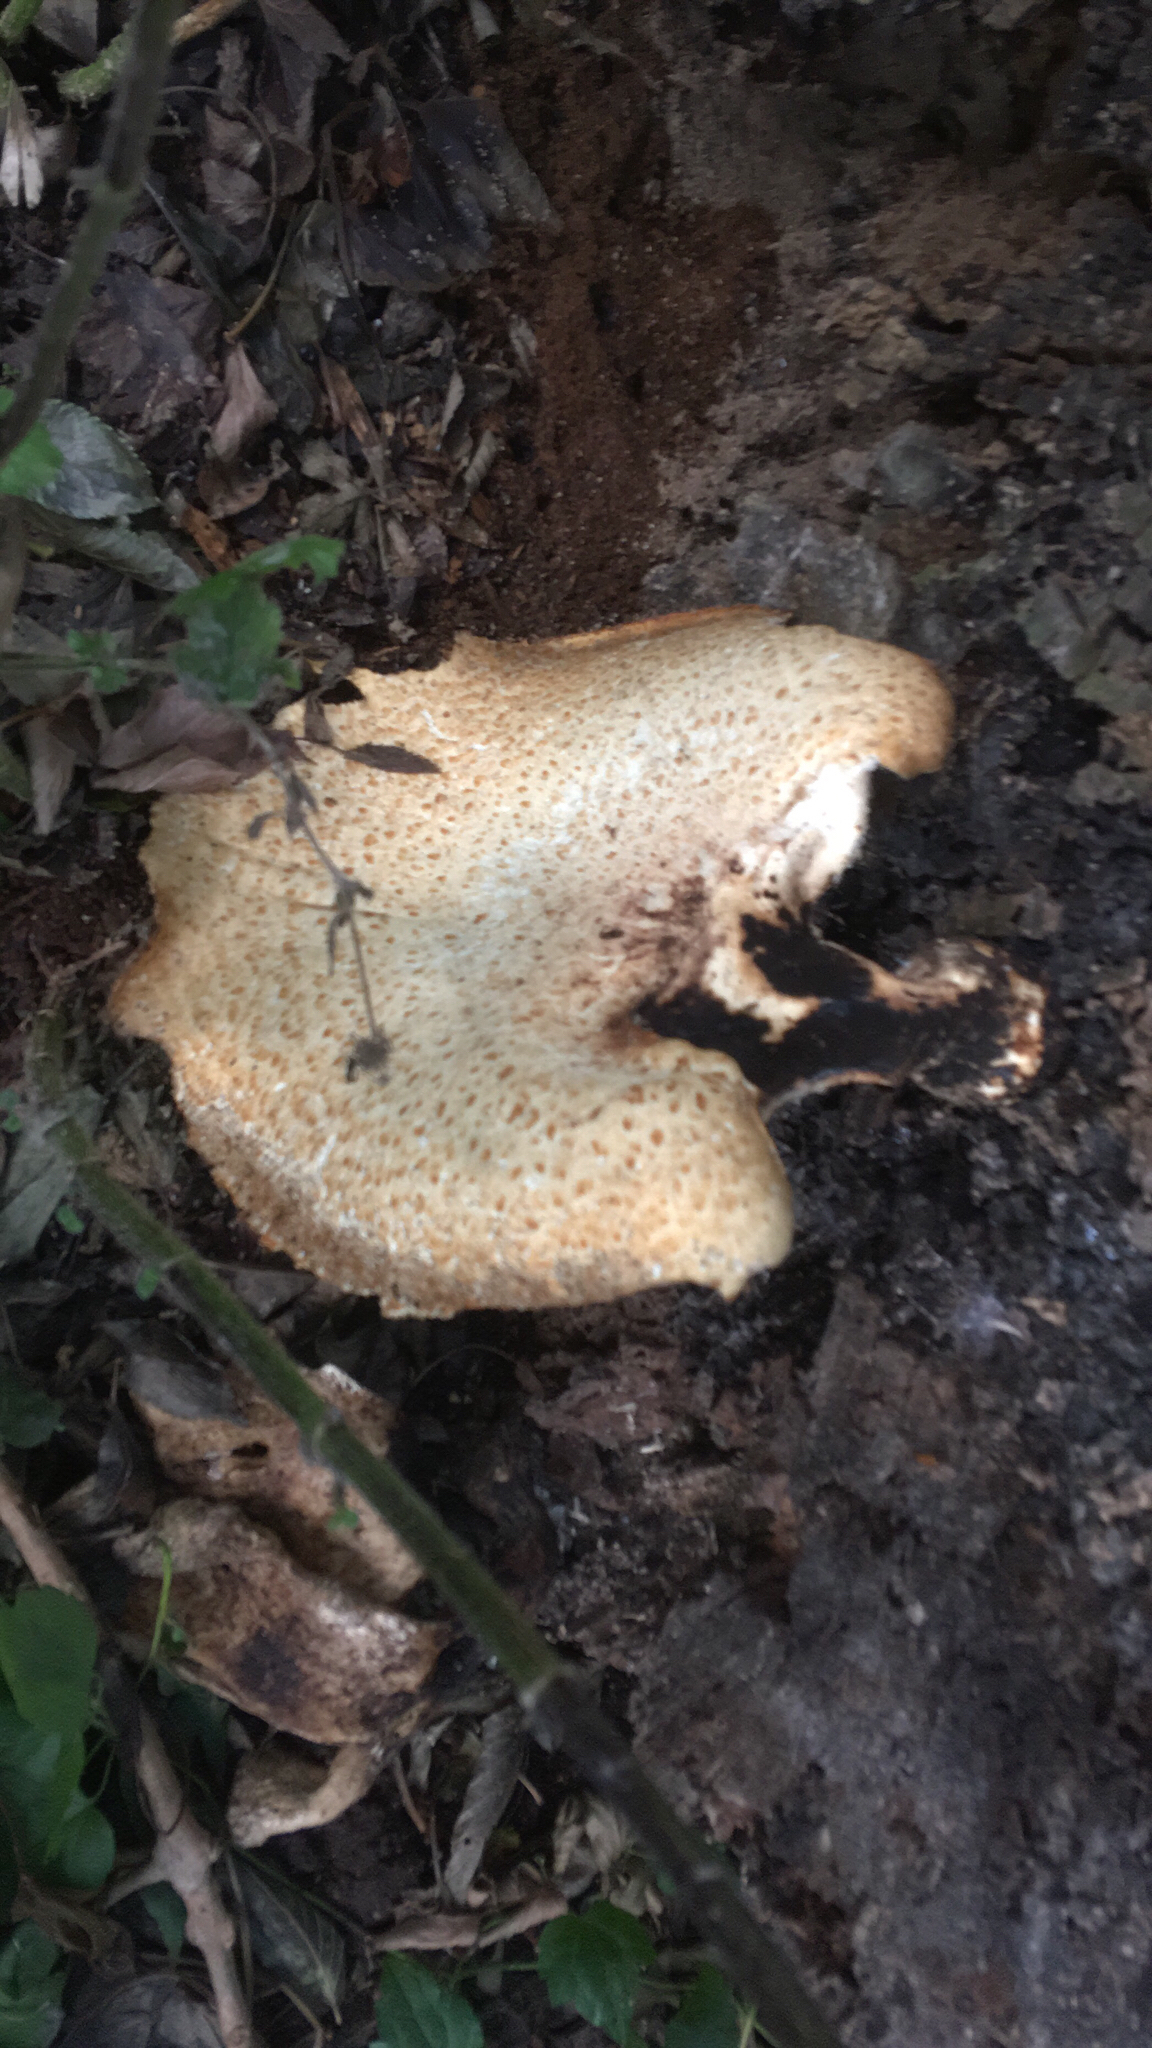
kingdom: Fungi
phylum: Basidiomycota
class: Agaricomycetes
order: Polyporales
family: Polyporaceae
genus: Cerioporus
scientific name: Cerioporus squamosus
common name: Dryad's saddle
